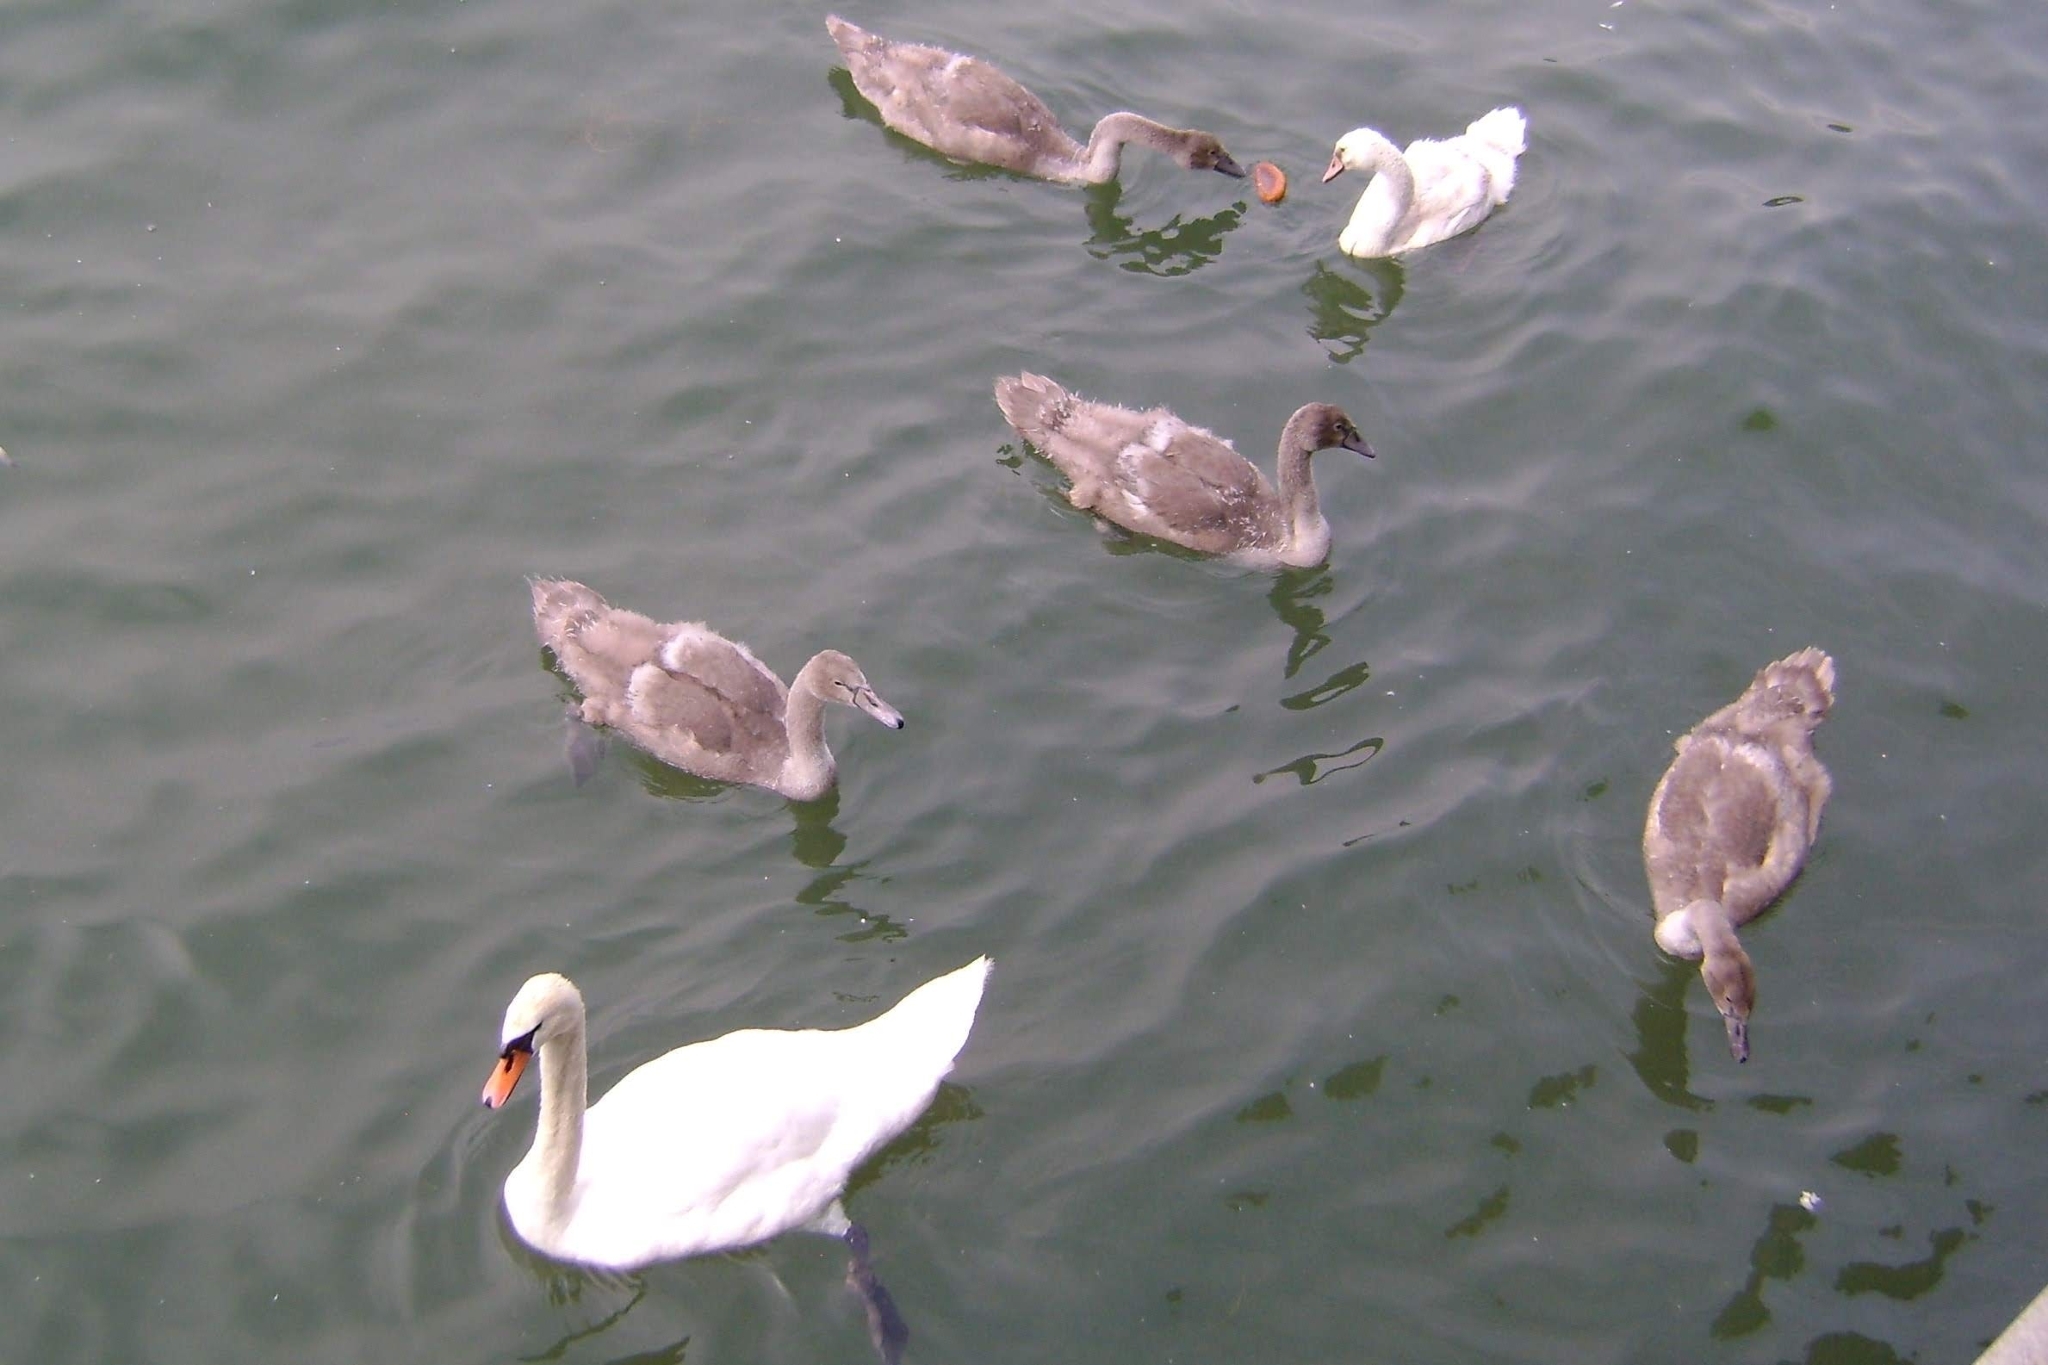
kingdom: Animalia
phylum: Chordata
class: Aves
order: Anseriformes
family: Anatidae
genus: Cygnus
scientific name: Cygnus olor
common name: Mute swan
